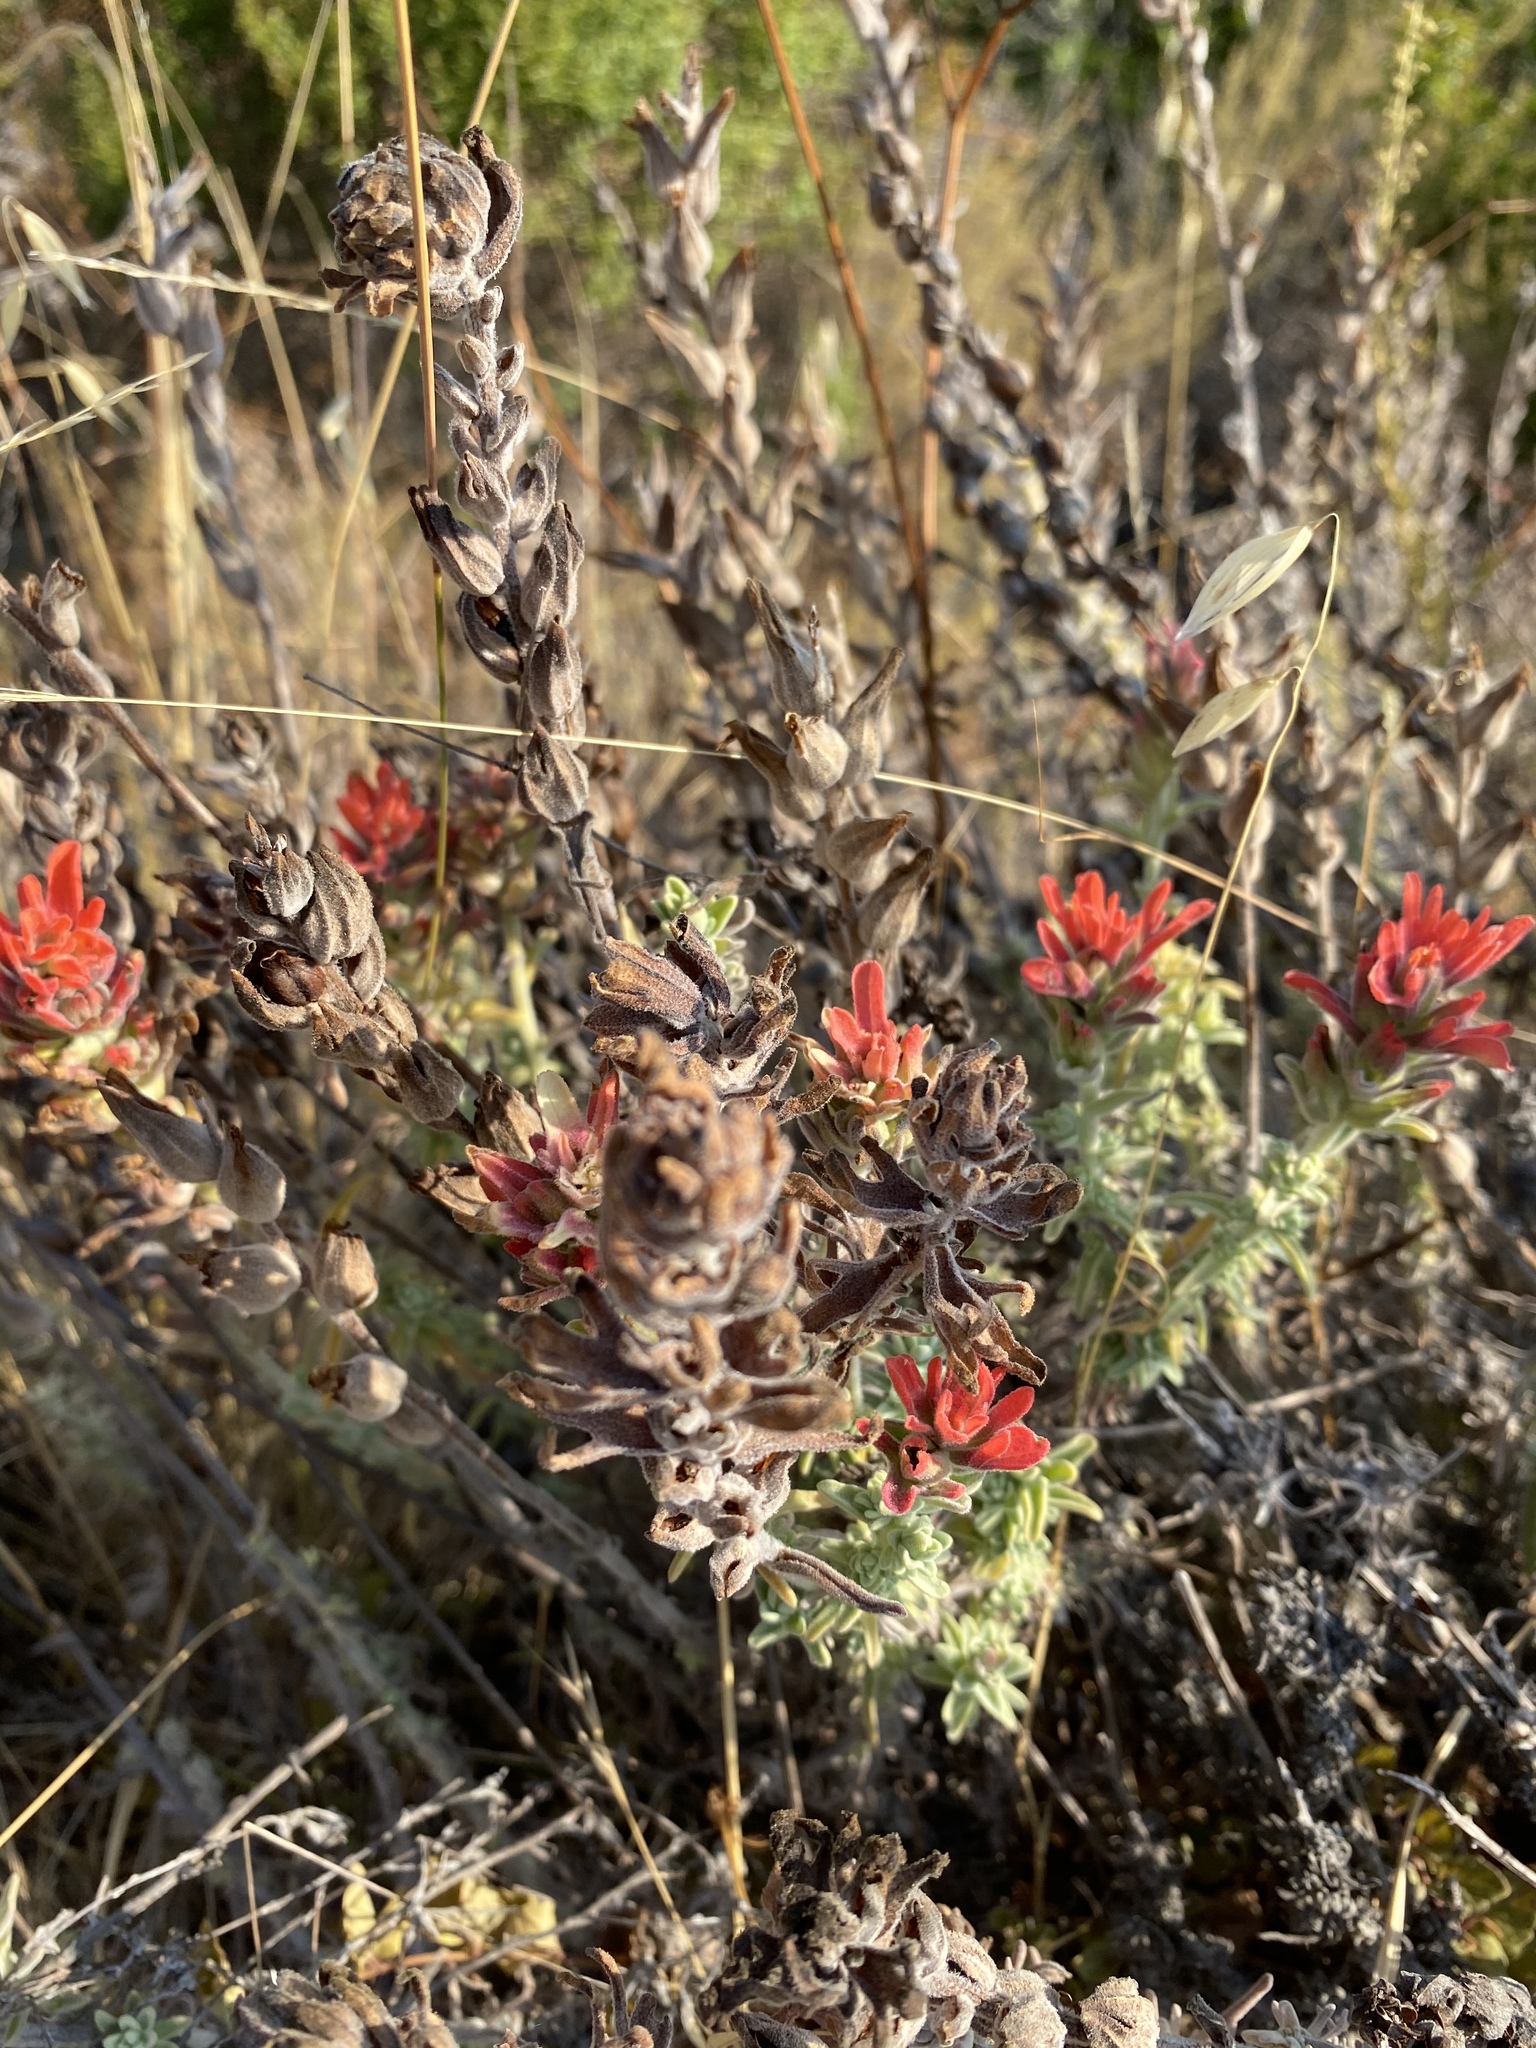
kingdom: Plantae
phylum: Tracheophyta
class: Magnoliopsida
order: Lamiales
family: Orobanchaceae
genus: Castilleja
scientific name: Castilleja foliolosa
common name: Woolly indian paintbrush
